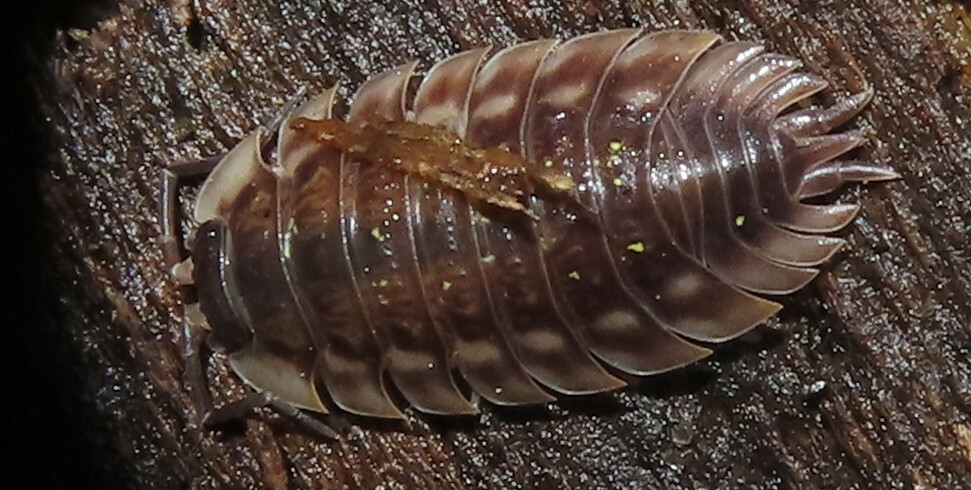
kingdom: Animalia
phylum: Arthropoda
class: Malacostraca
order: Isopoda
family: Oniscidae
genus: Oniscus
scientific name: Oniscus asellus
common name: Common shiny woodlouse
